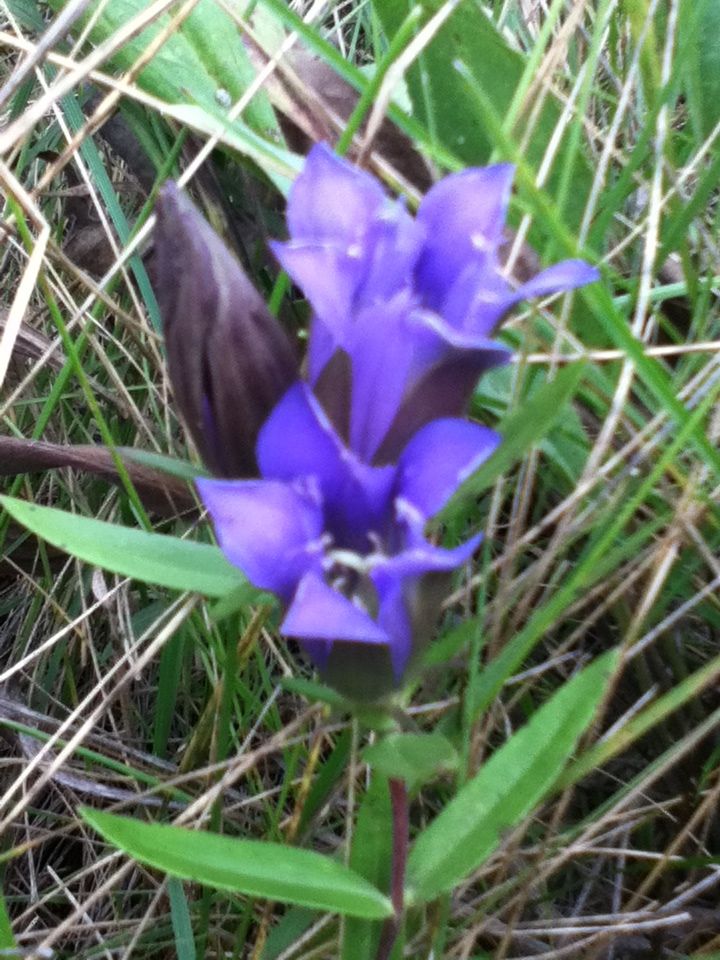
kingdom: Plantae
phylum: Tracheophyta
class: Magnoliopsida
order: Gentianales
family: Gentianaceae
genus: Gentiana
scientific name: Gentiana puberulenta
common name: Downy gentian
